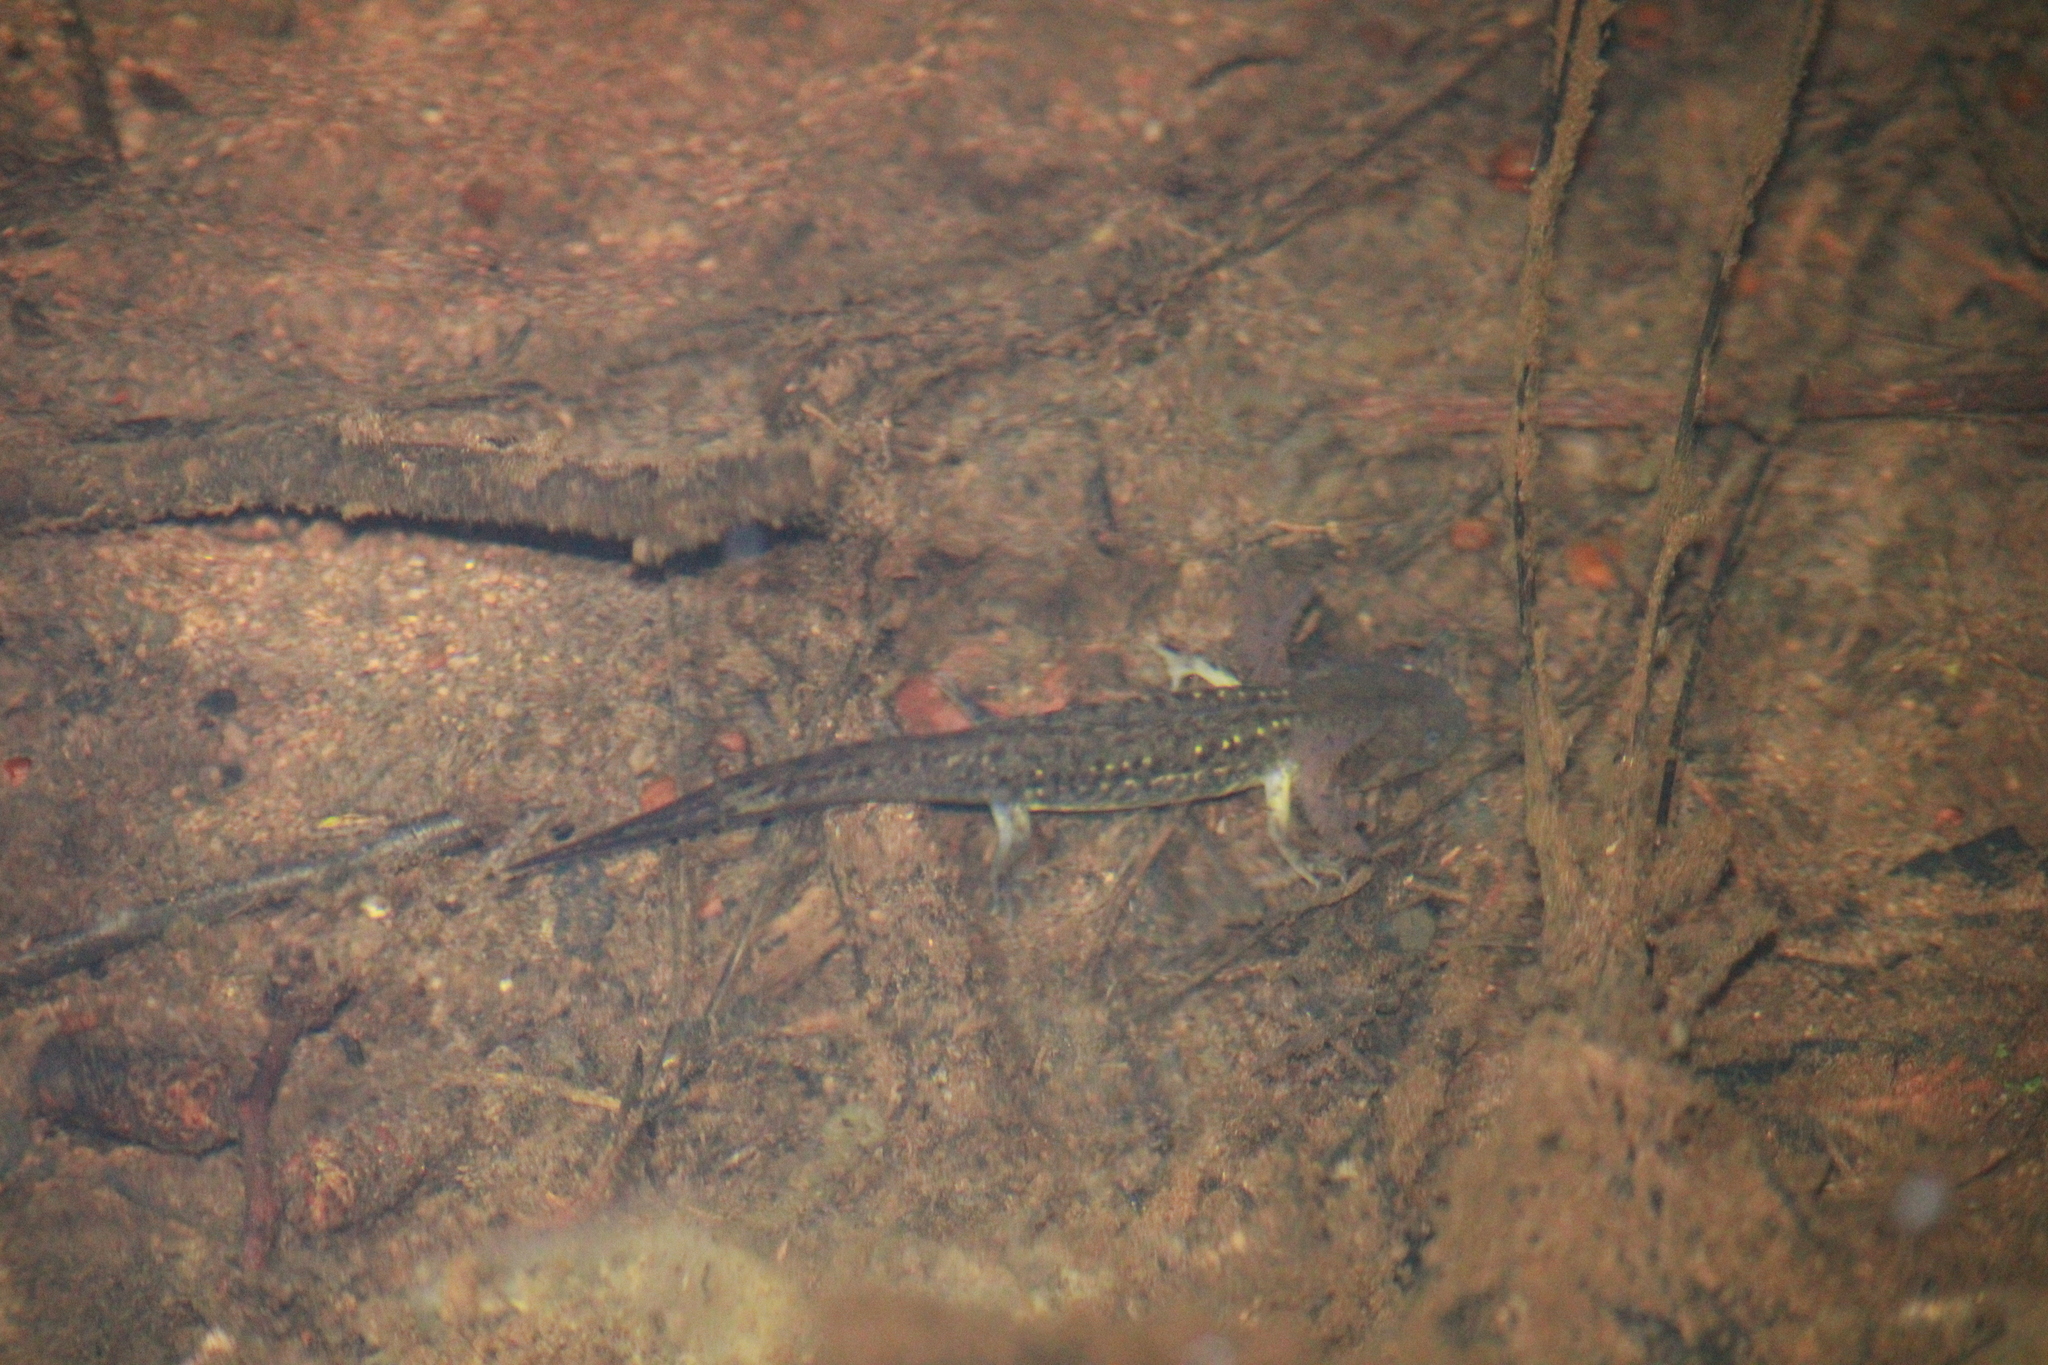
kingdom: Animalia
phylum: Chordata
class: Amphibia
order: Caudata
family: Ambystomatidae
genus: Ambystoma
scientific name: Ambystoma flavipiperatum
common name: Yellow-peppered salamander
